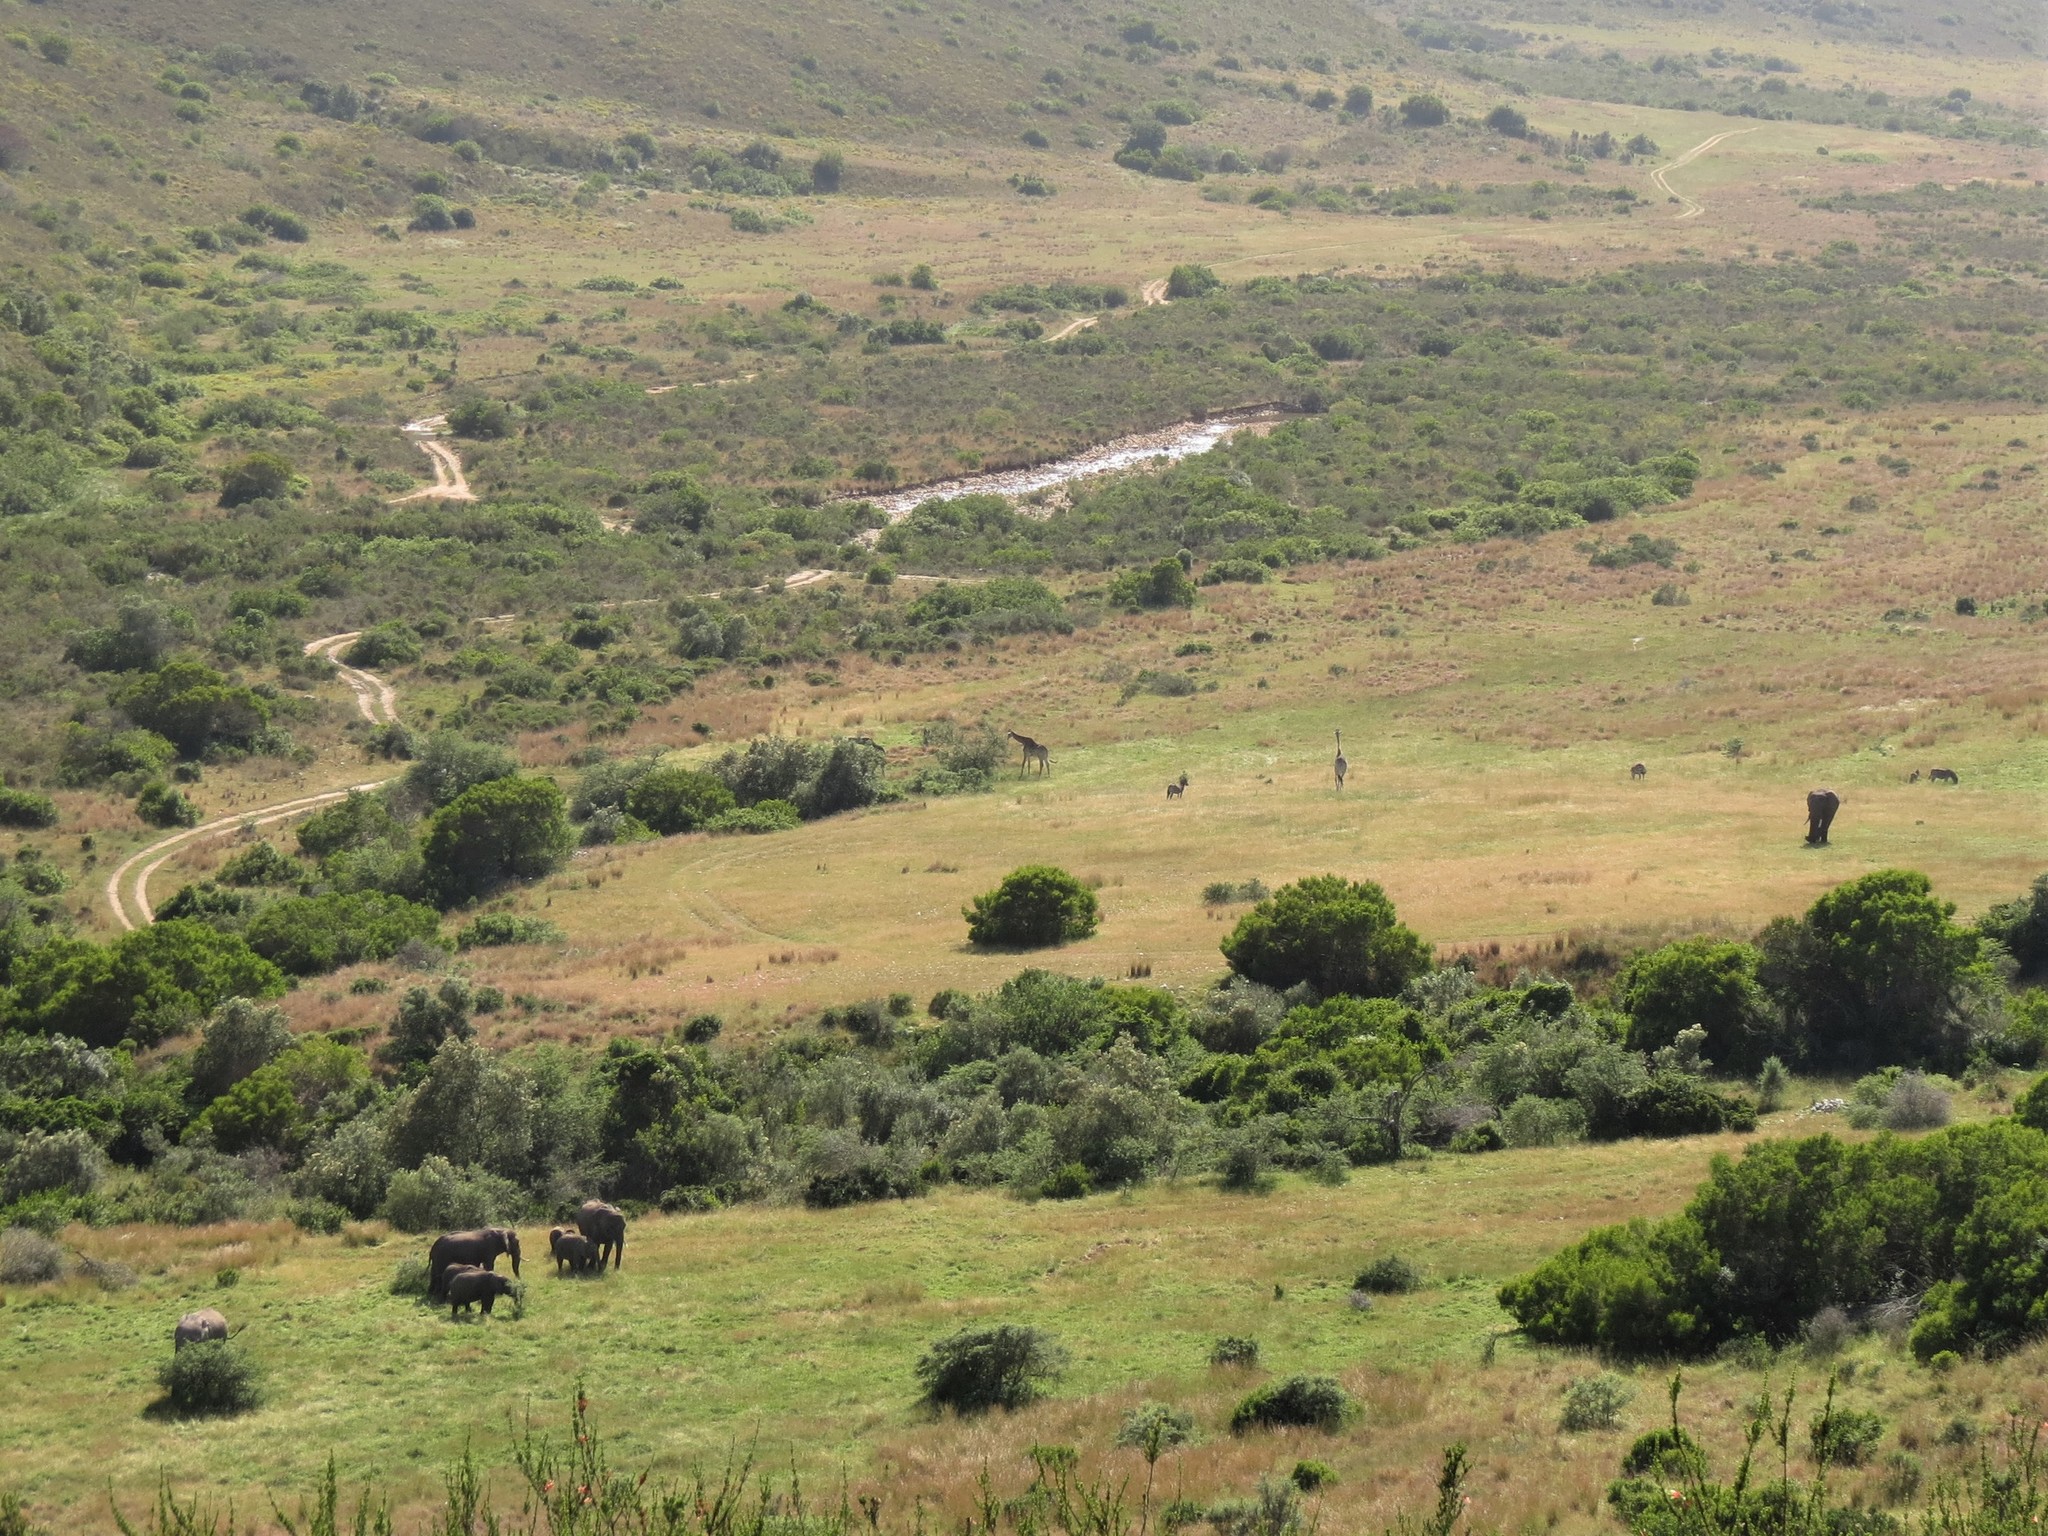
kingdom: Animalia
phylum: Chordata
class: Mammalia
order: Artiodactyla
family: Giraffidae
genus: Giraffa
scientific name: Giraffa giraffa
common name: Southern giraffe
